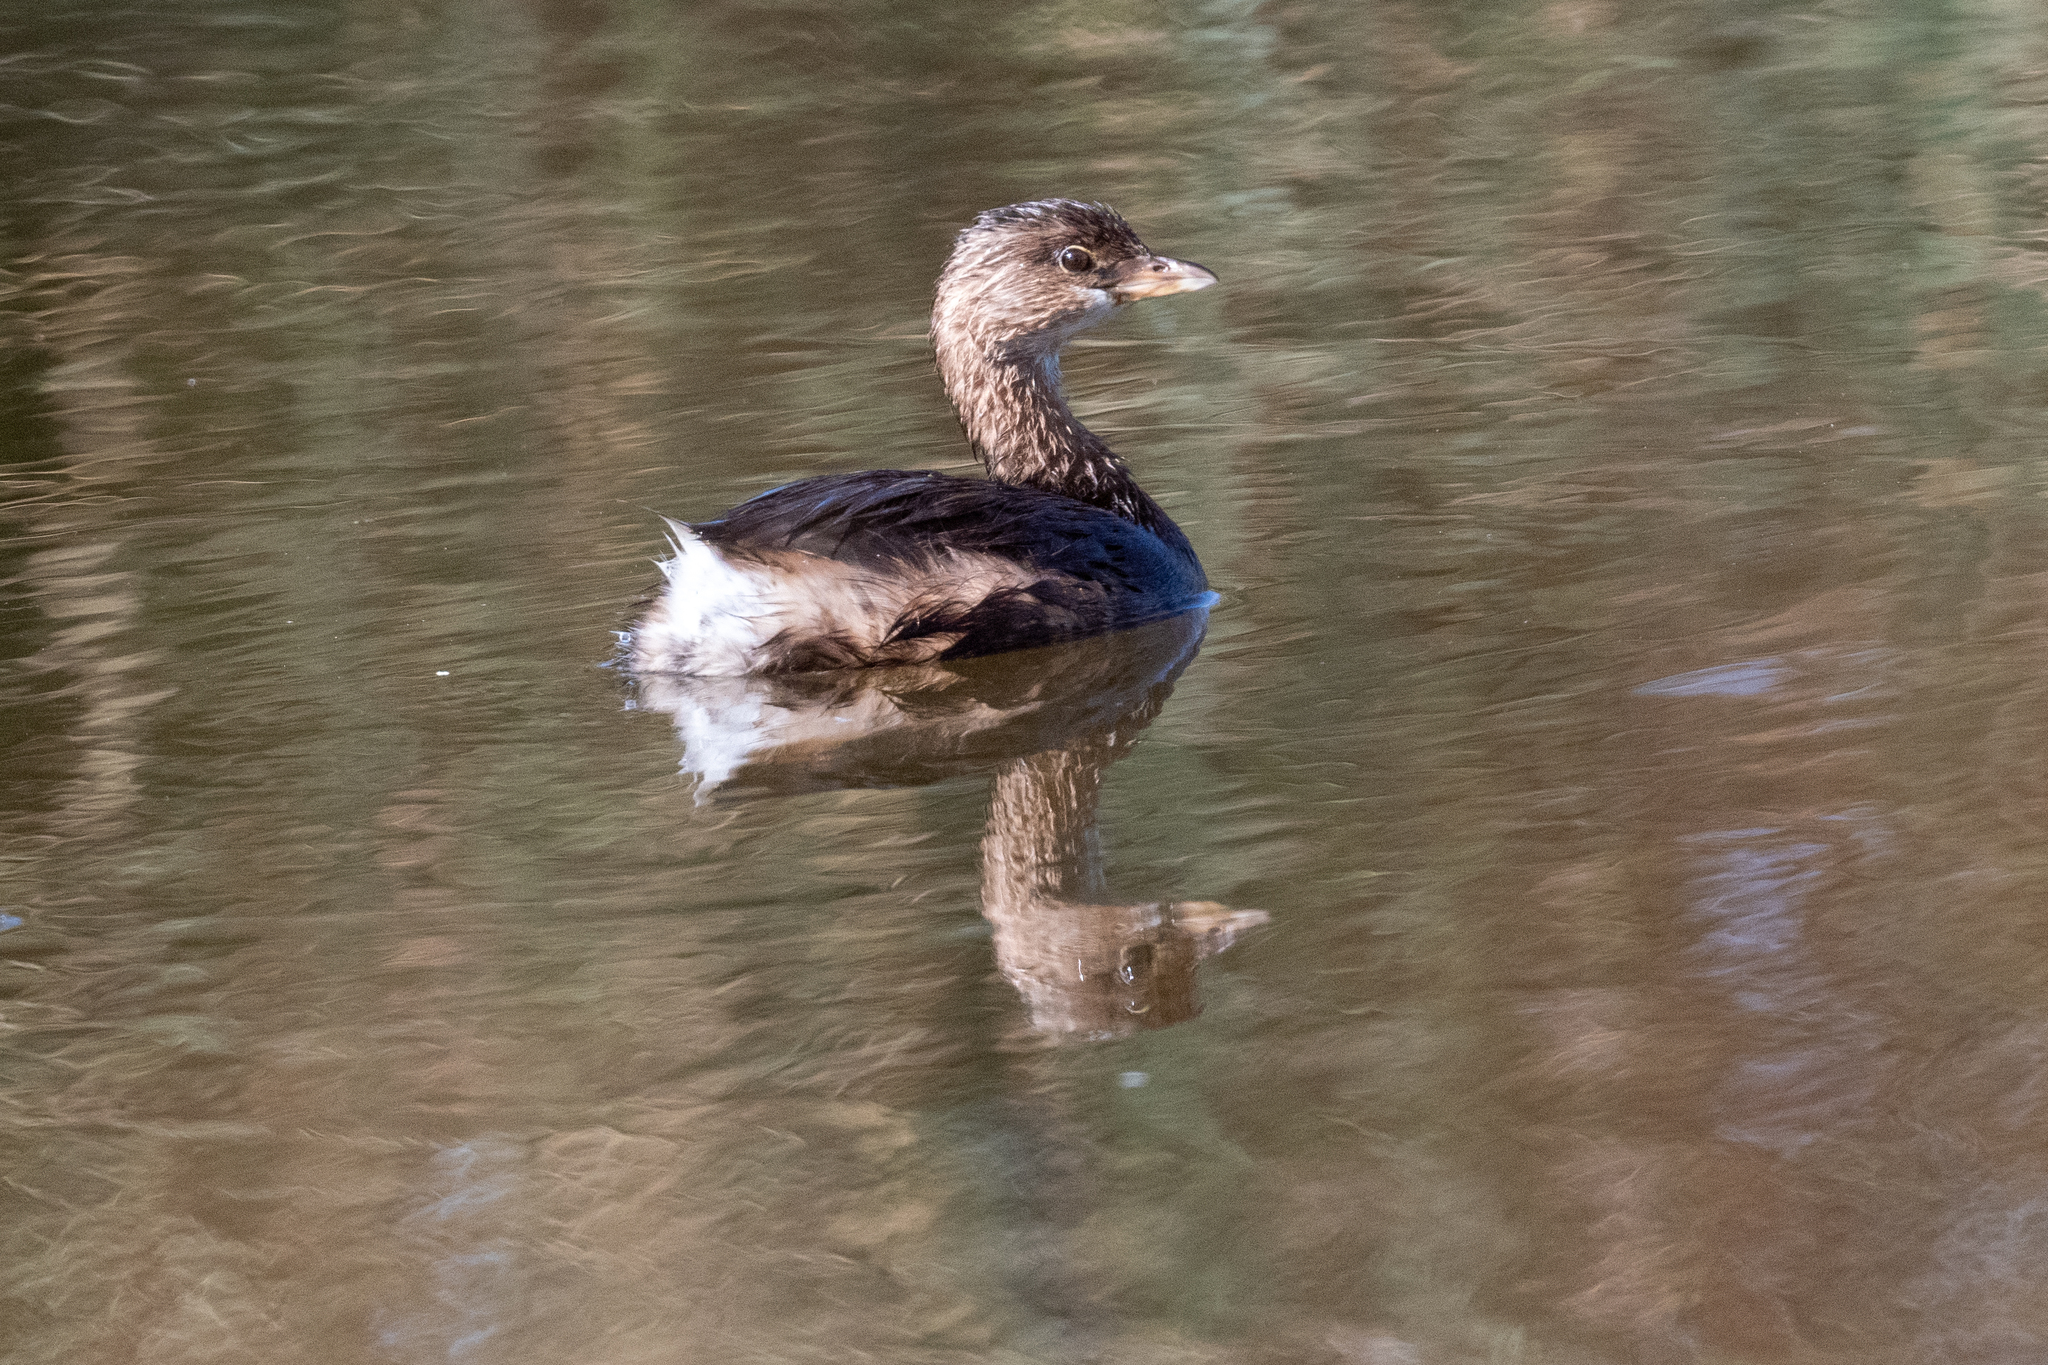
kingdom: Animalia
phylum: Chordata
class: Aves
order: Podicipediformes
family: Podicipedidae
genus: Podilymbus
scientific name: Podilymbus podiceps
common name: Pied-billed grebe
